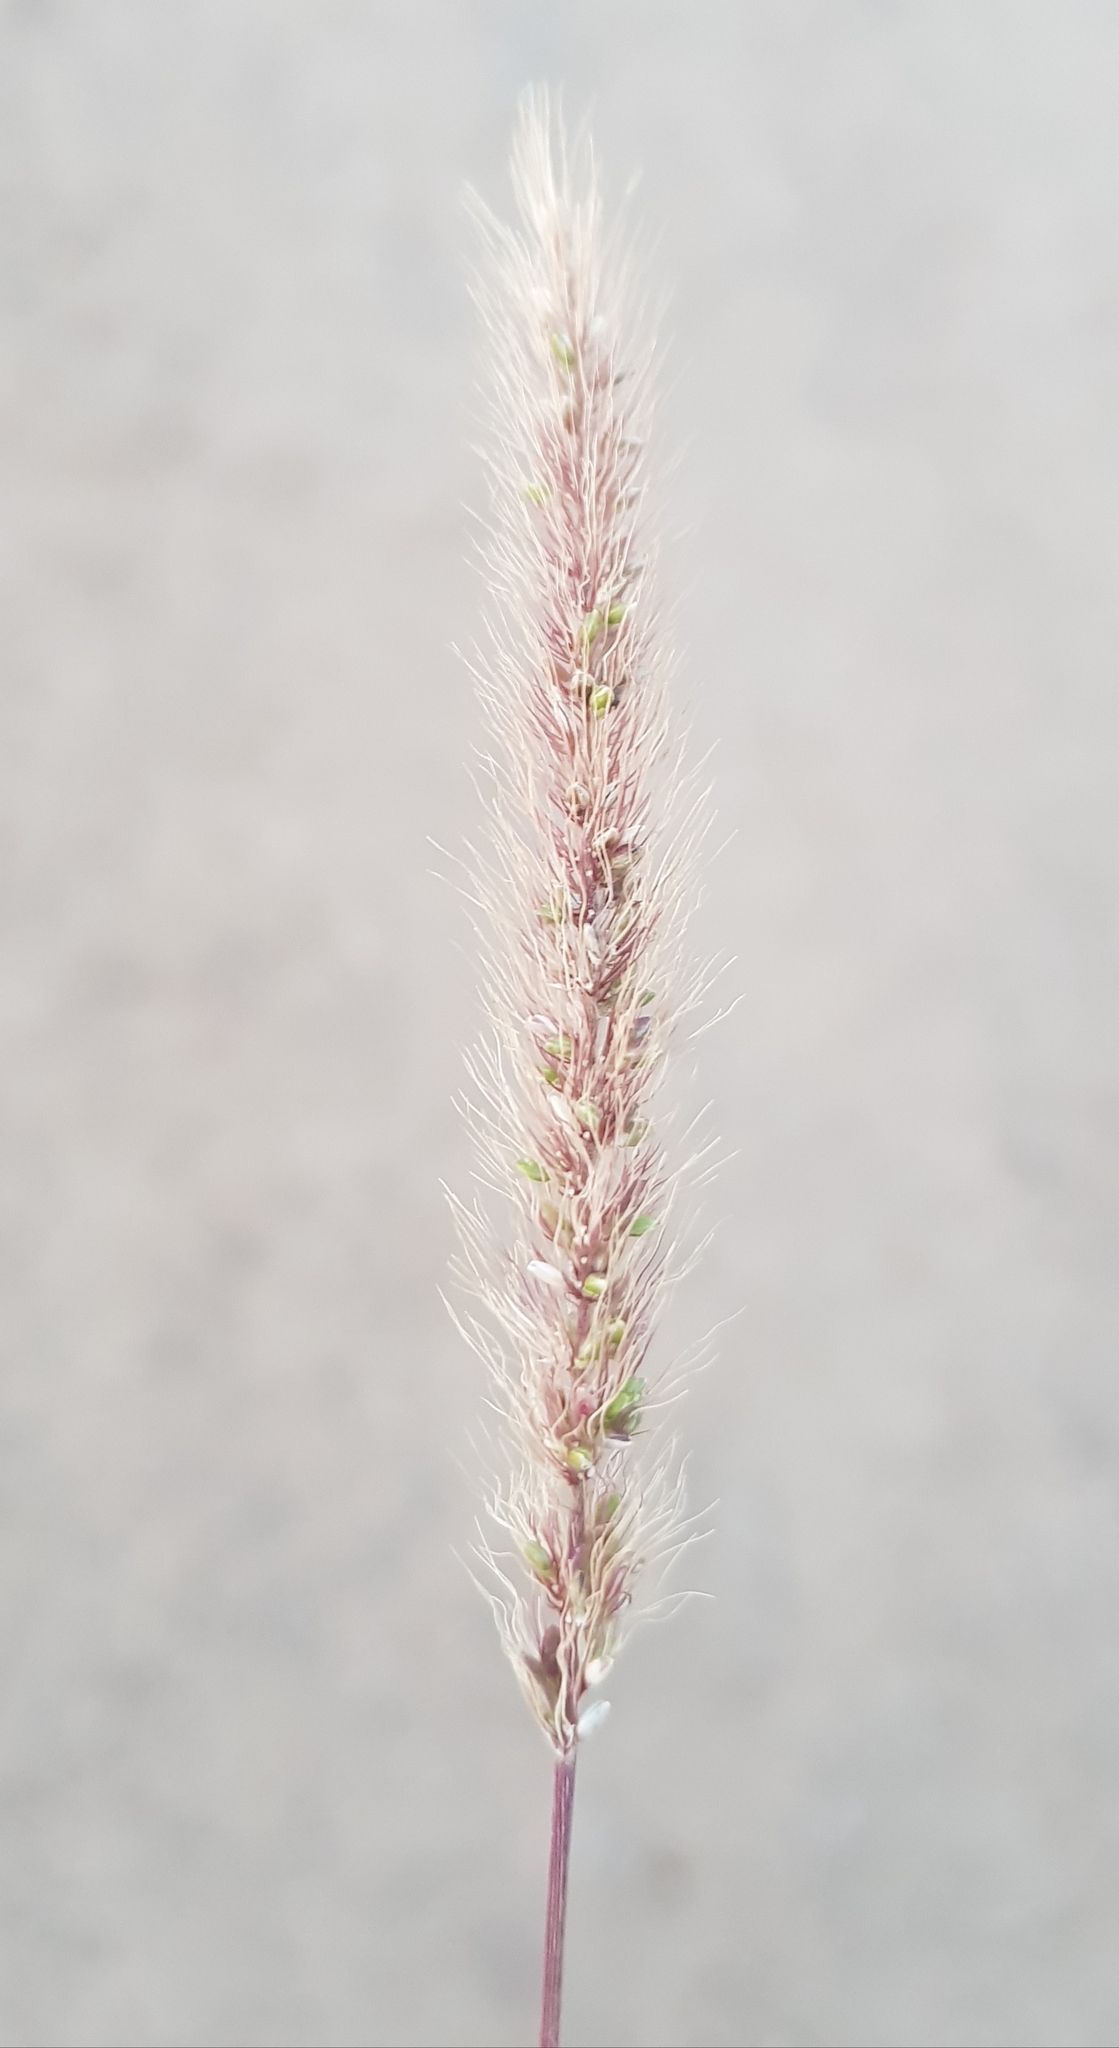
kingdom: Plantae
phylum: Tracheophyta
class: Liliopsida
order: Poales
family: Poaceae
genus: Setaria
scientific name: Setaria viridis
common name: Green bristlegrass
